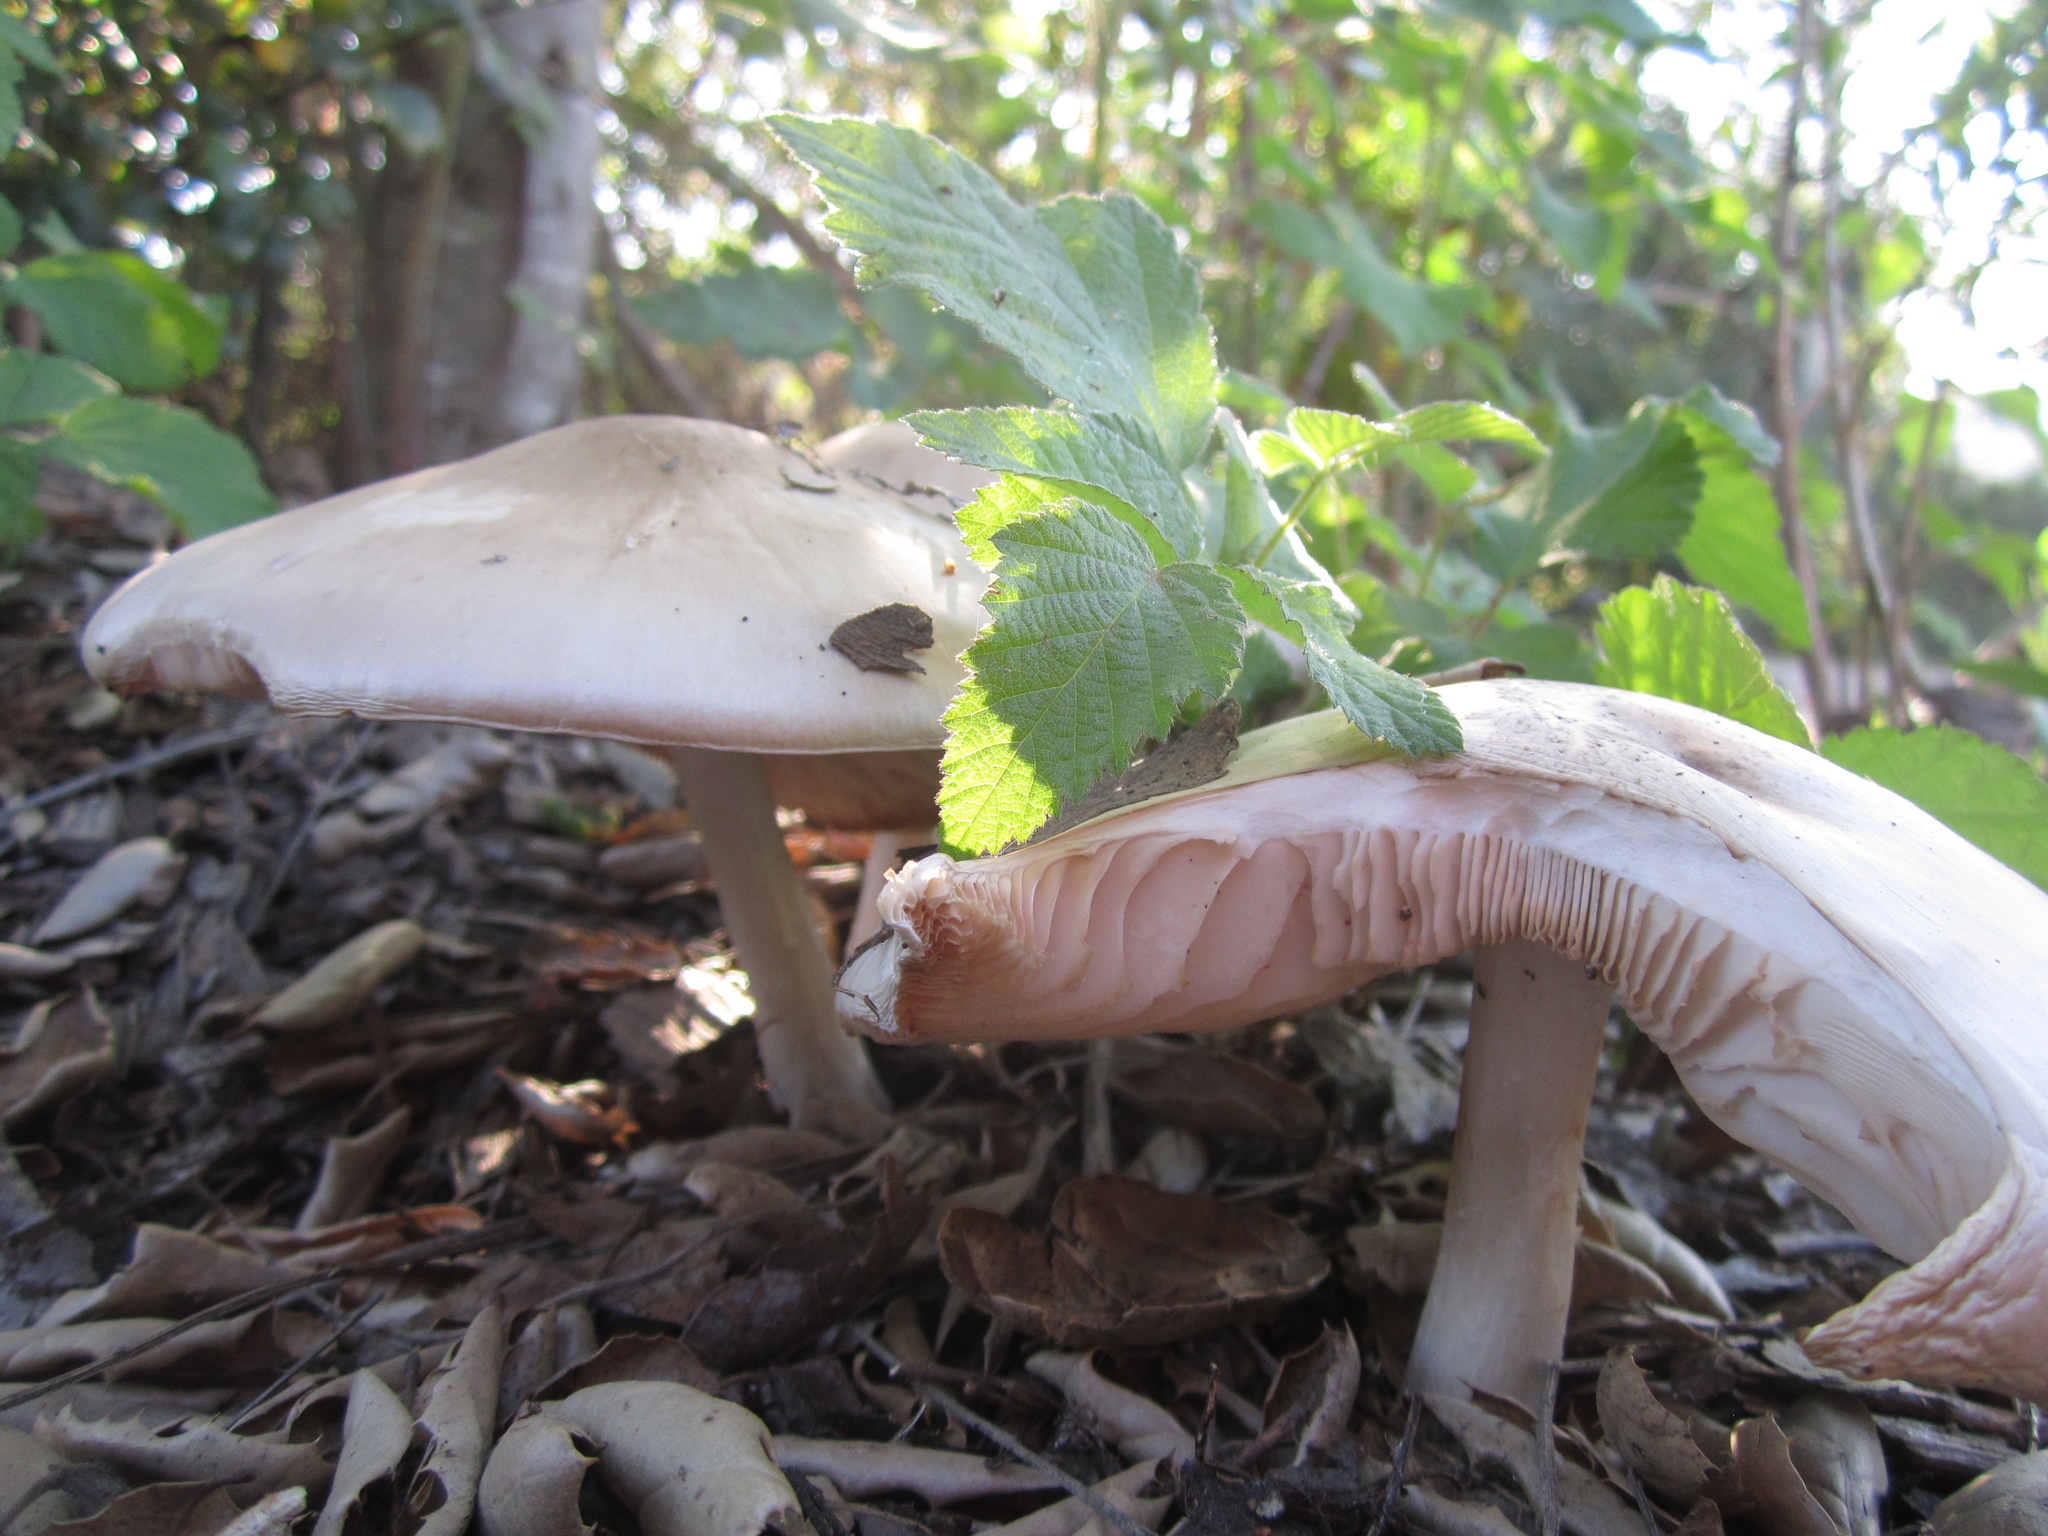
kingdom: Fungi
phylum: Basidiomycota
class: Agaricomycetes
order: Agaricales
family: Pluteaceae
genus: Pluteus
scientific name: Pluteus petasatus
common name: Scaly shield
